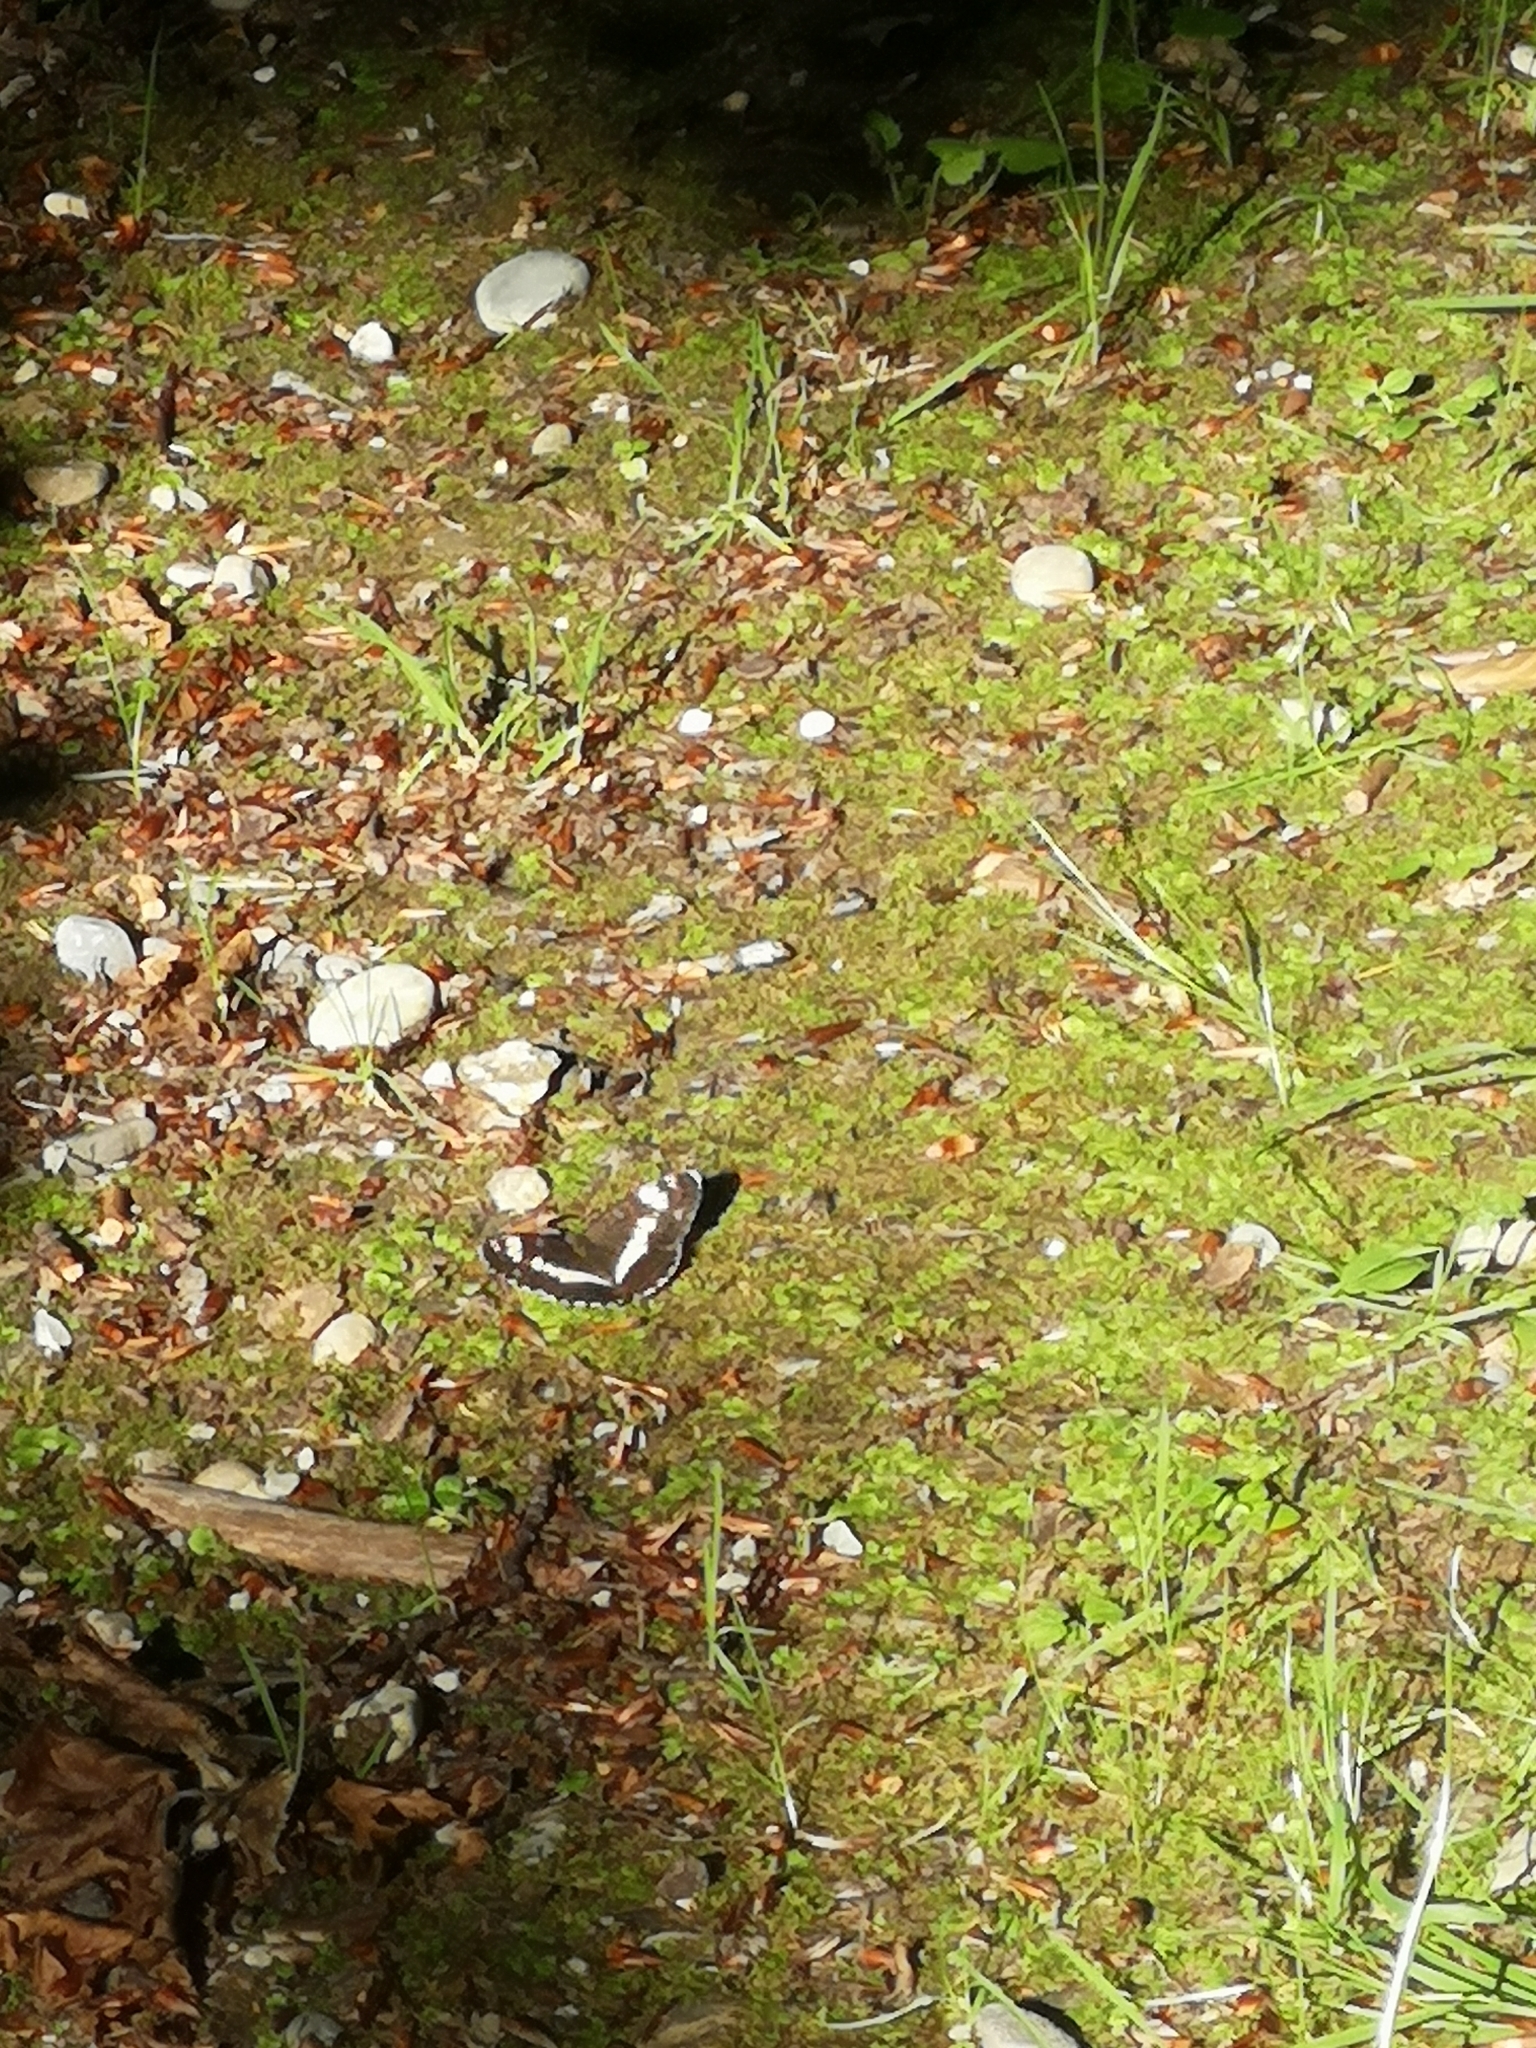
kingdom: Animalia
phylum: Arthropoda
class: Insecta
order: Lepidoptera
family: Nymphalidae
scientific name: Nymphalidae
